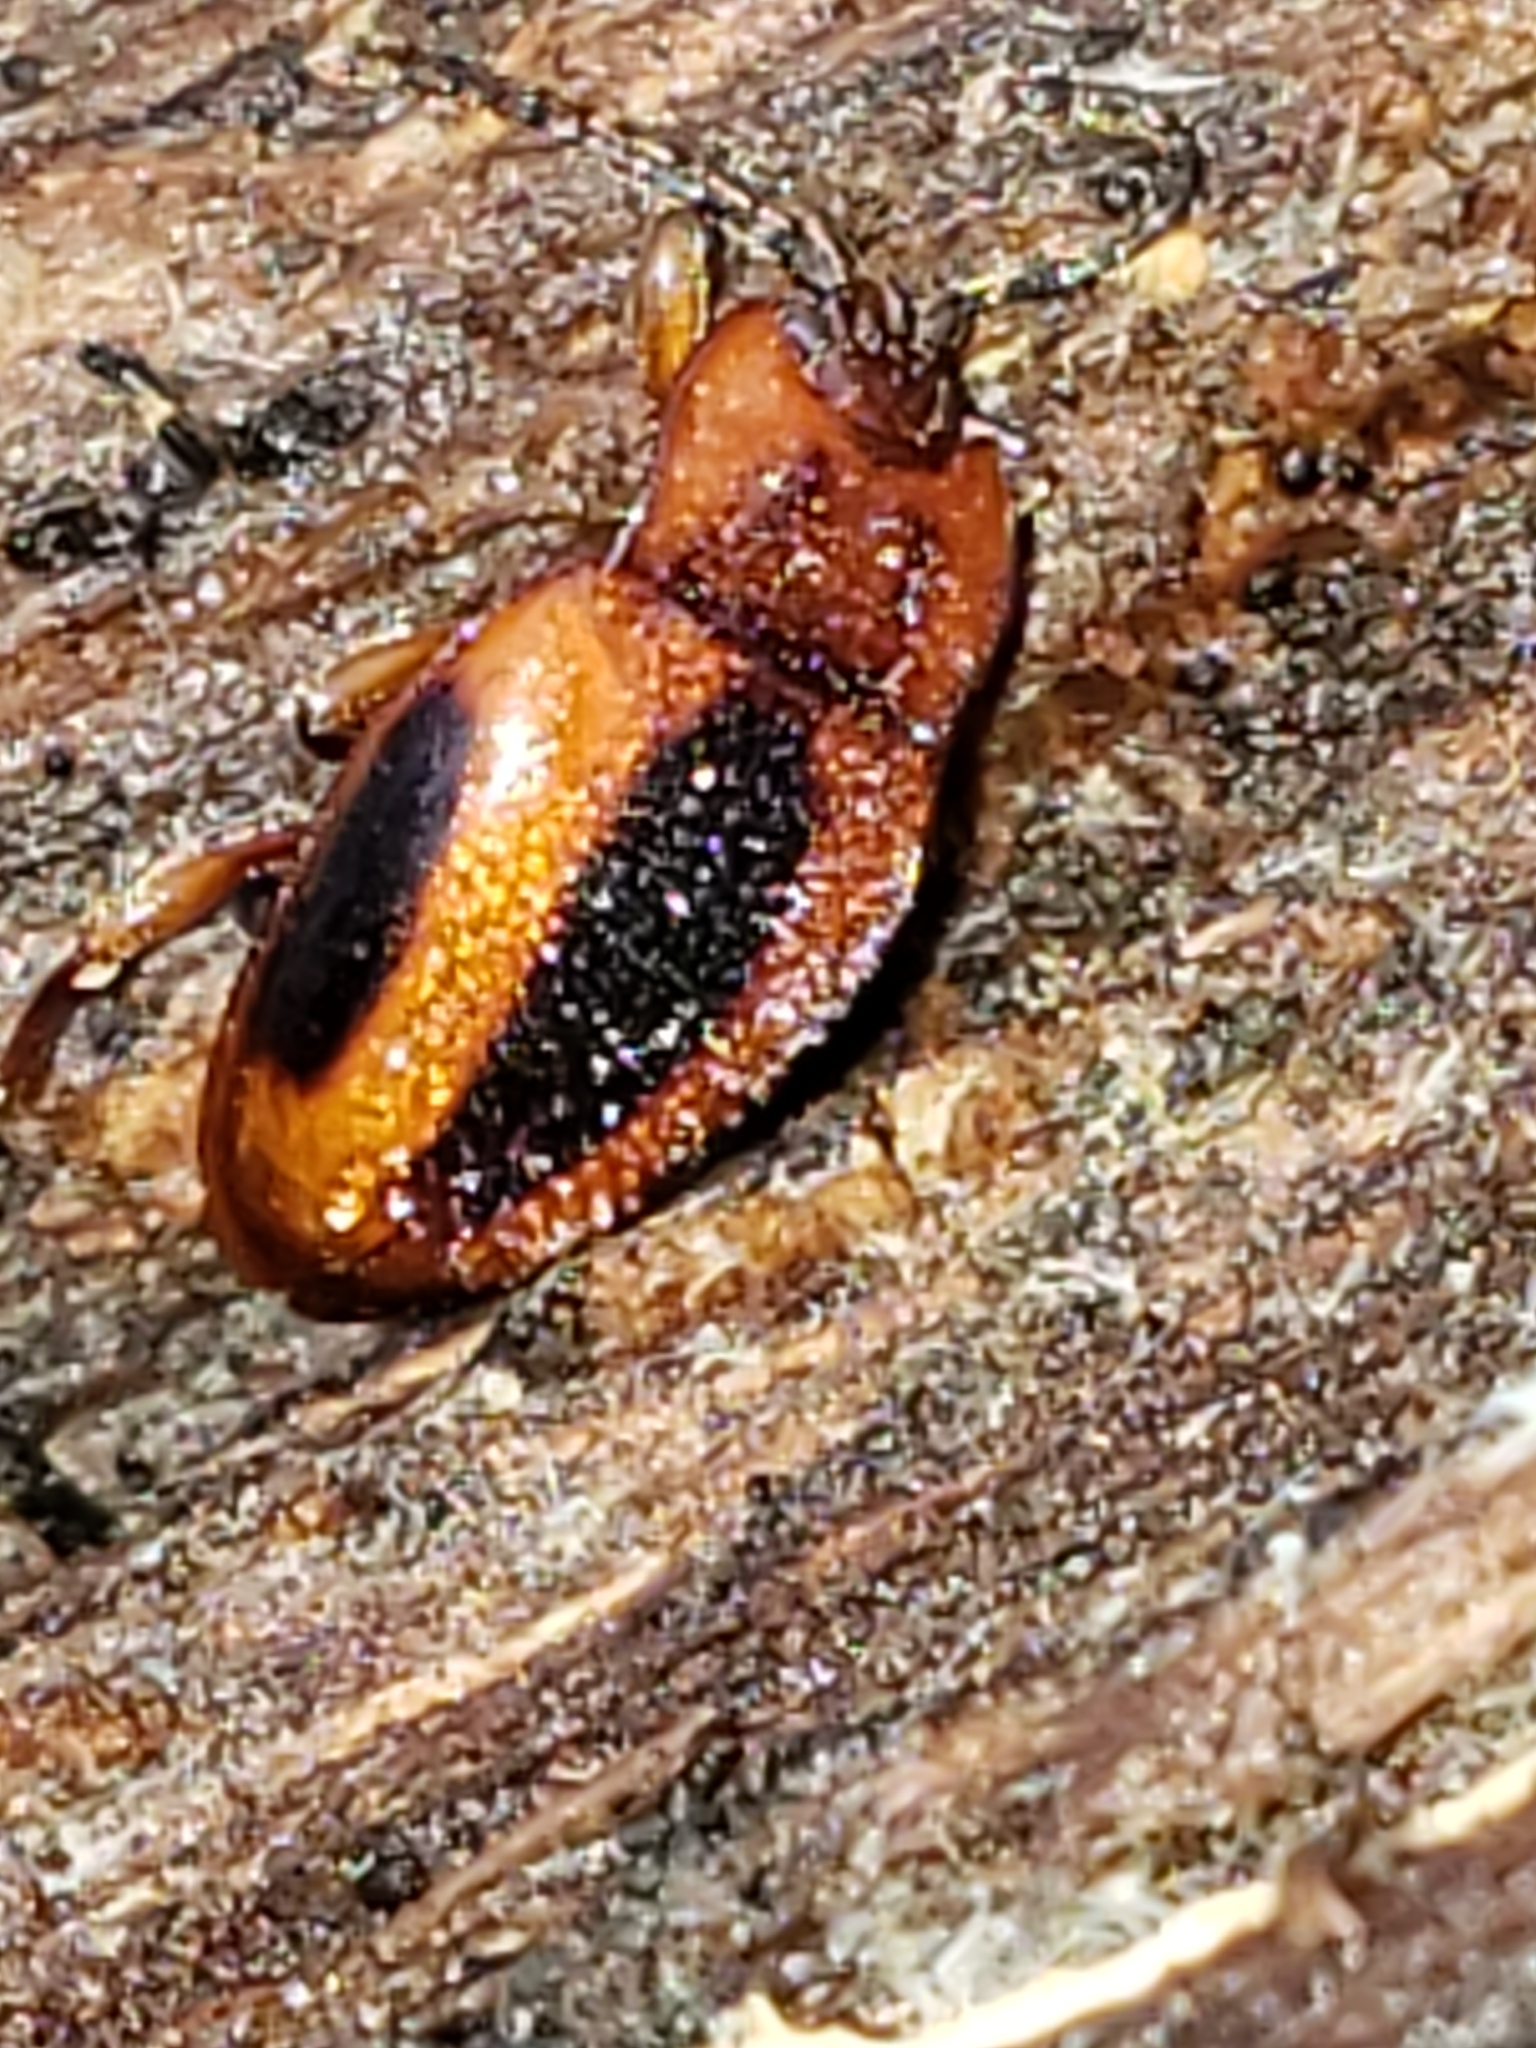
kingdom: Animalia
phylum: Arthropoda
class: Insecta
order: Coleoptera
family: Endomychidae
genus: Aphorista
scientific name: Aphorista vittata
